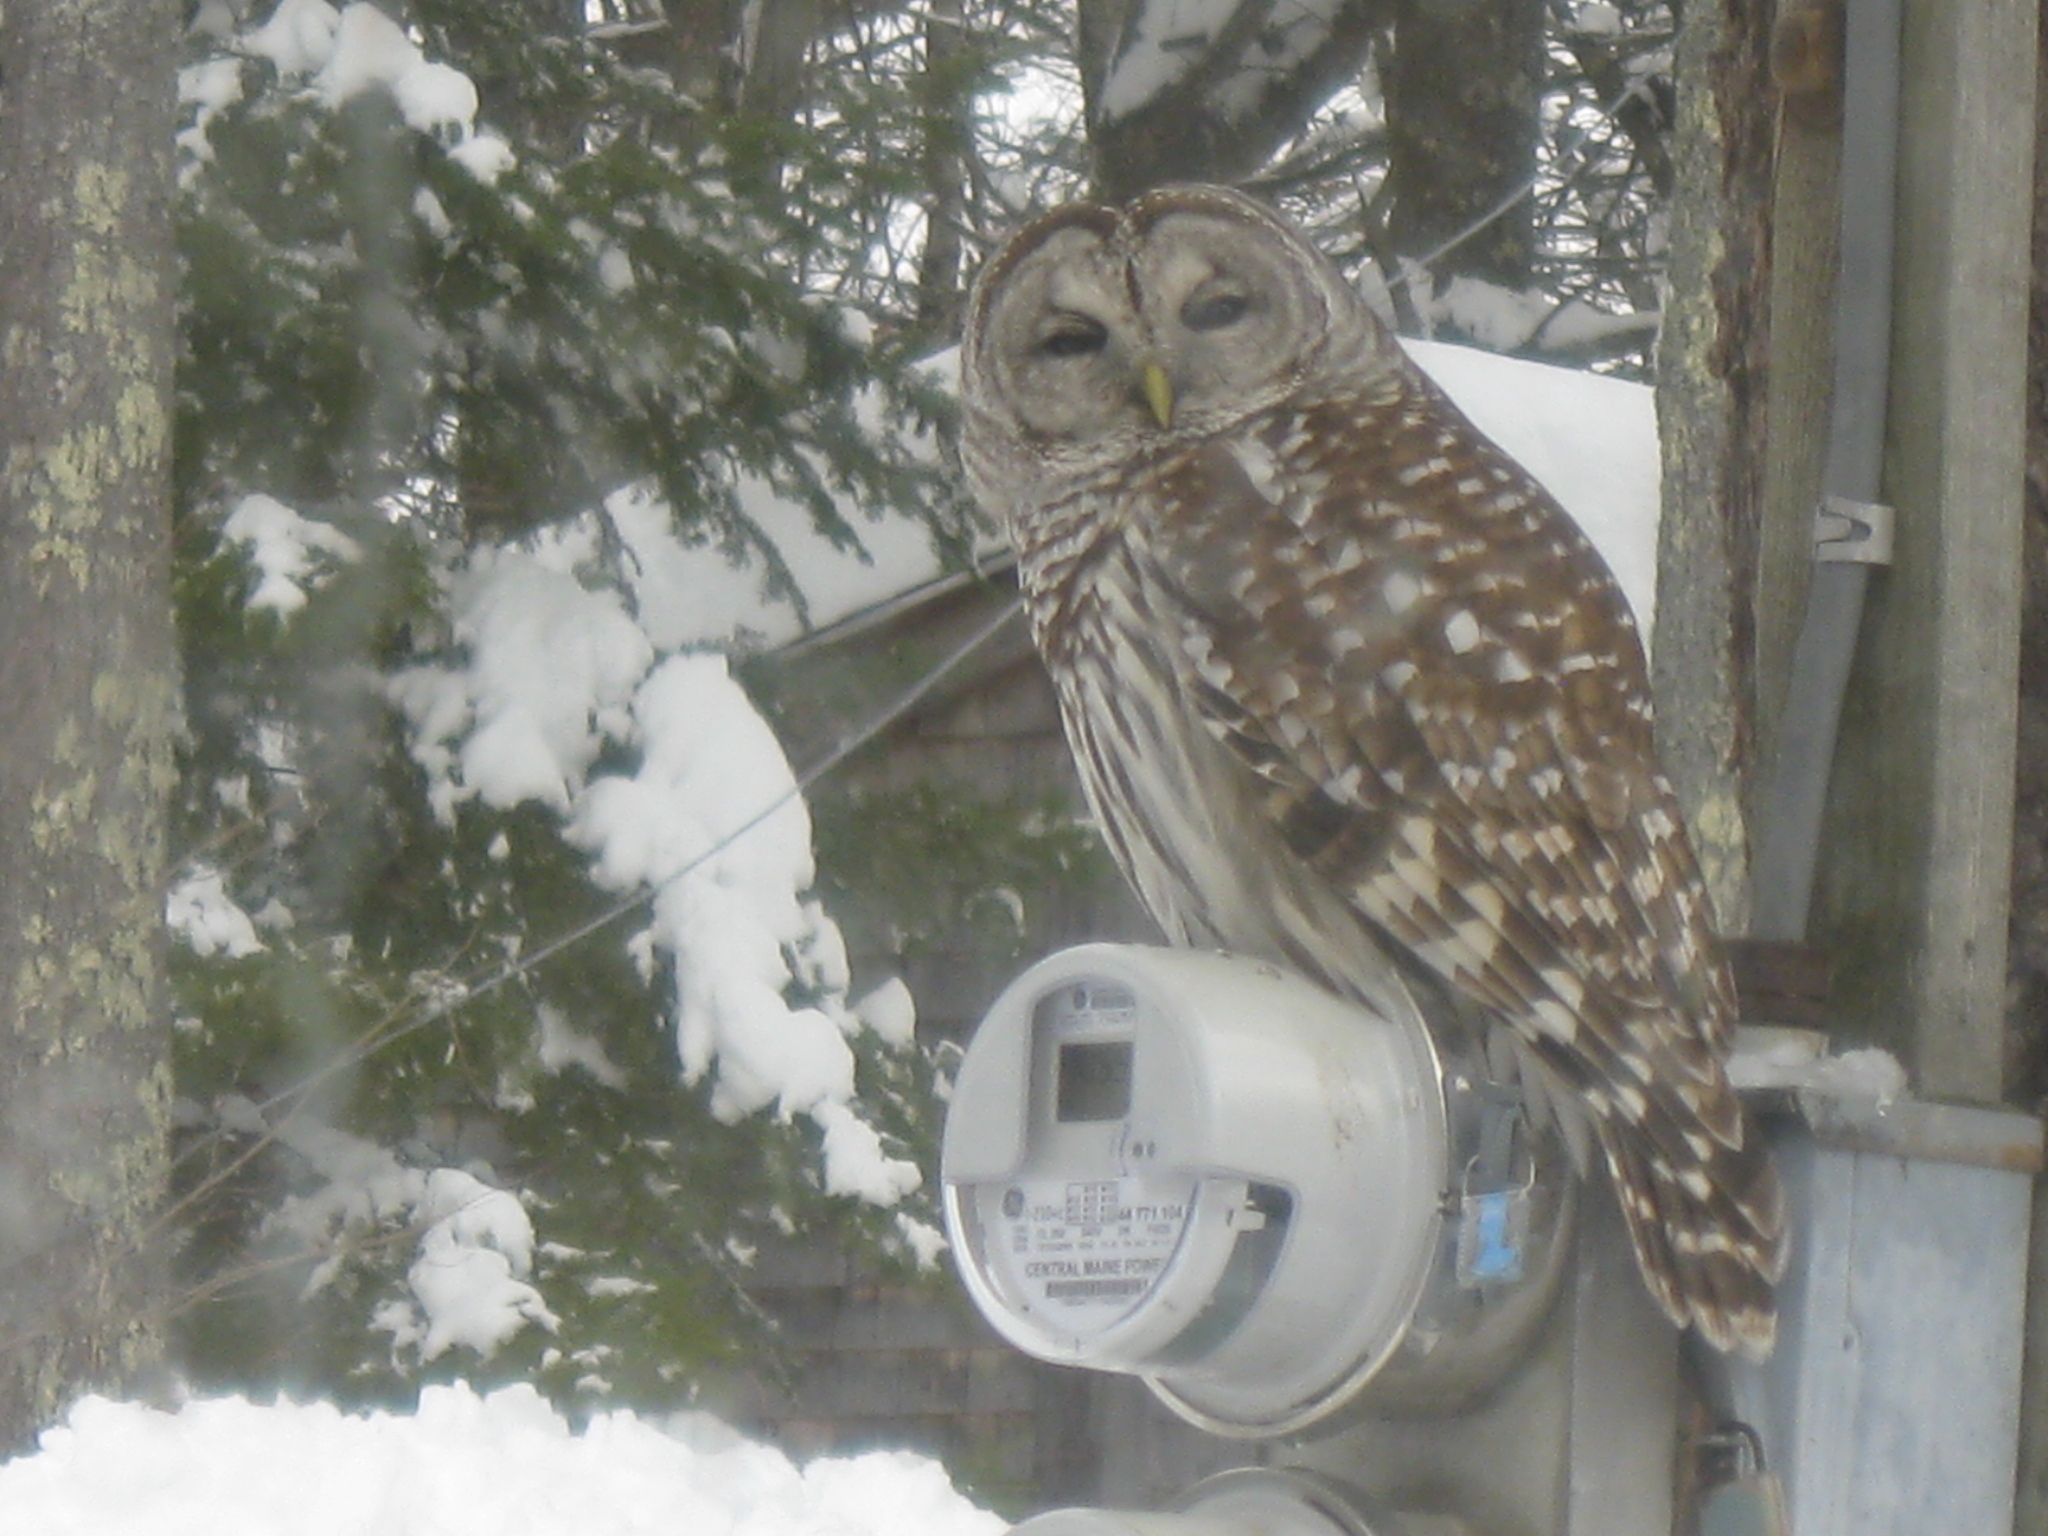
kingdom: Animalia
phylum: Chordata
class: Aves
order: Strigiformes
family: Strigidae
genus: Strix
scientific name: Strix varia
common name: Barred owl
